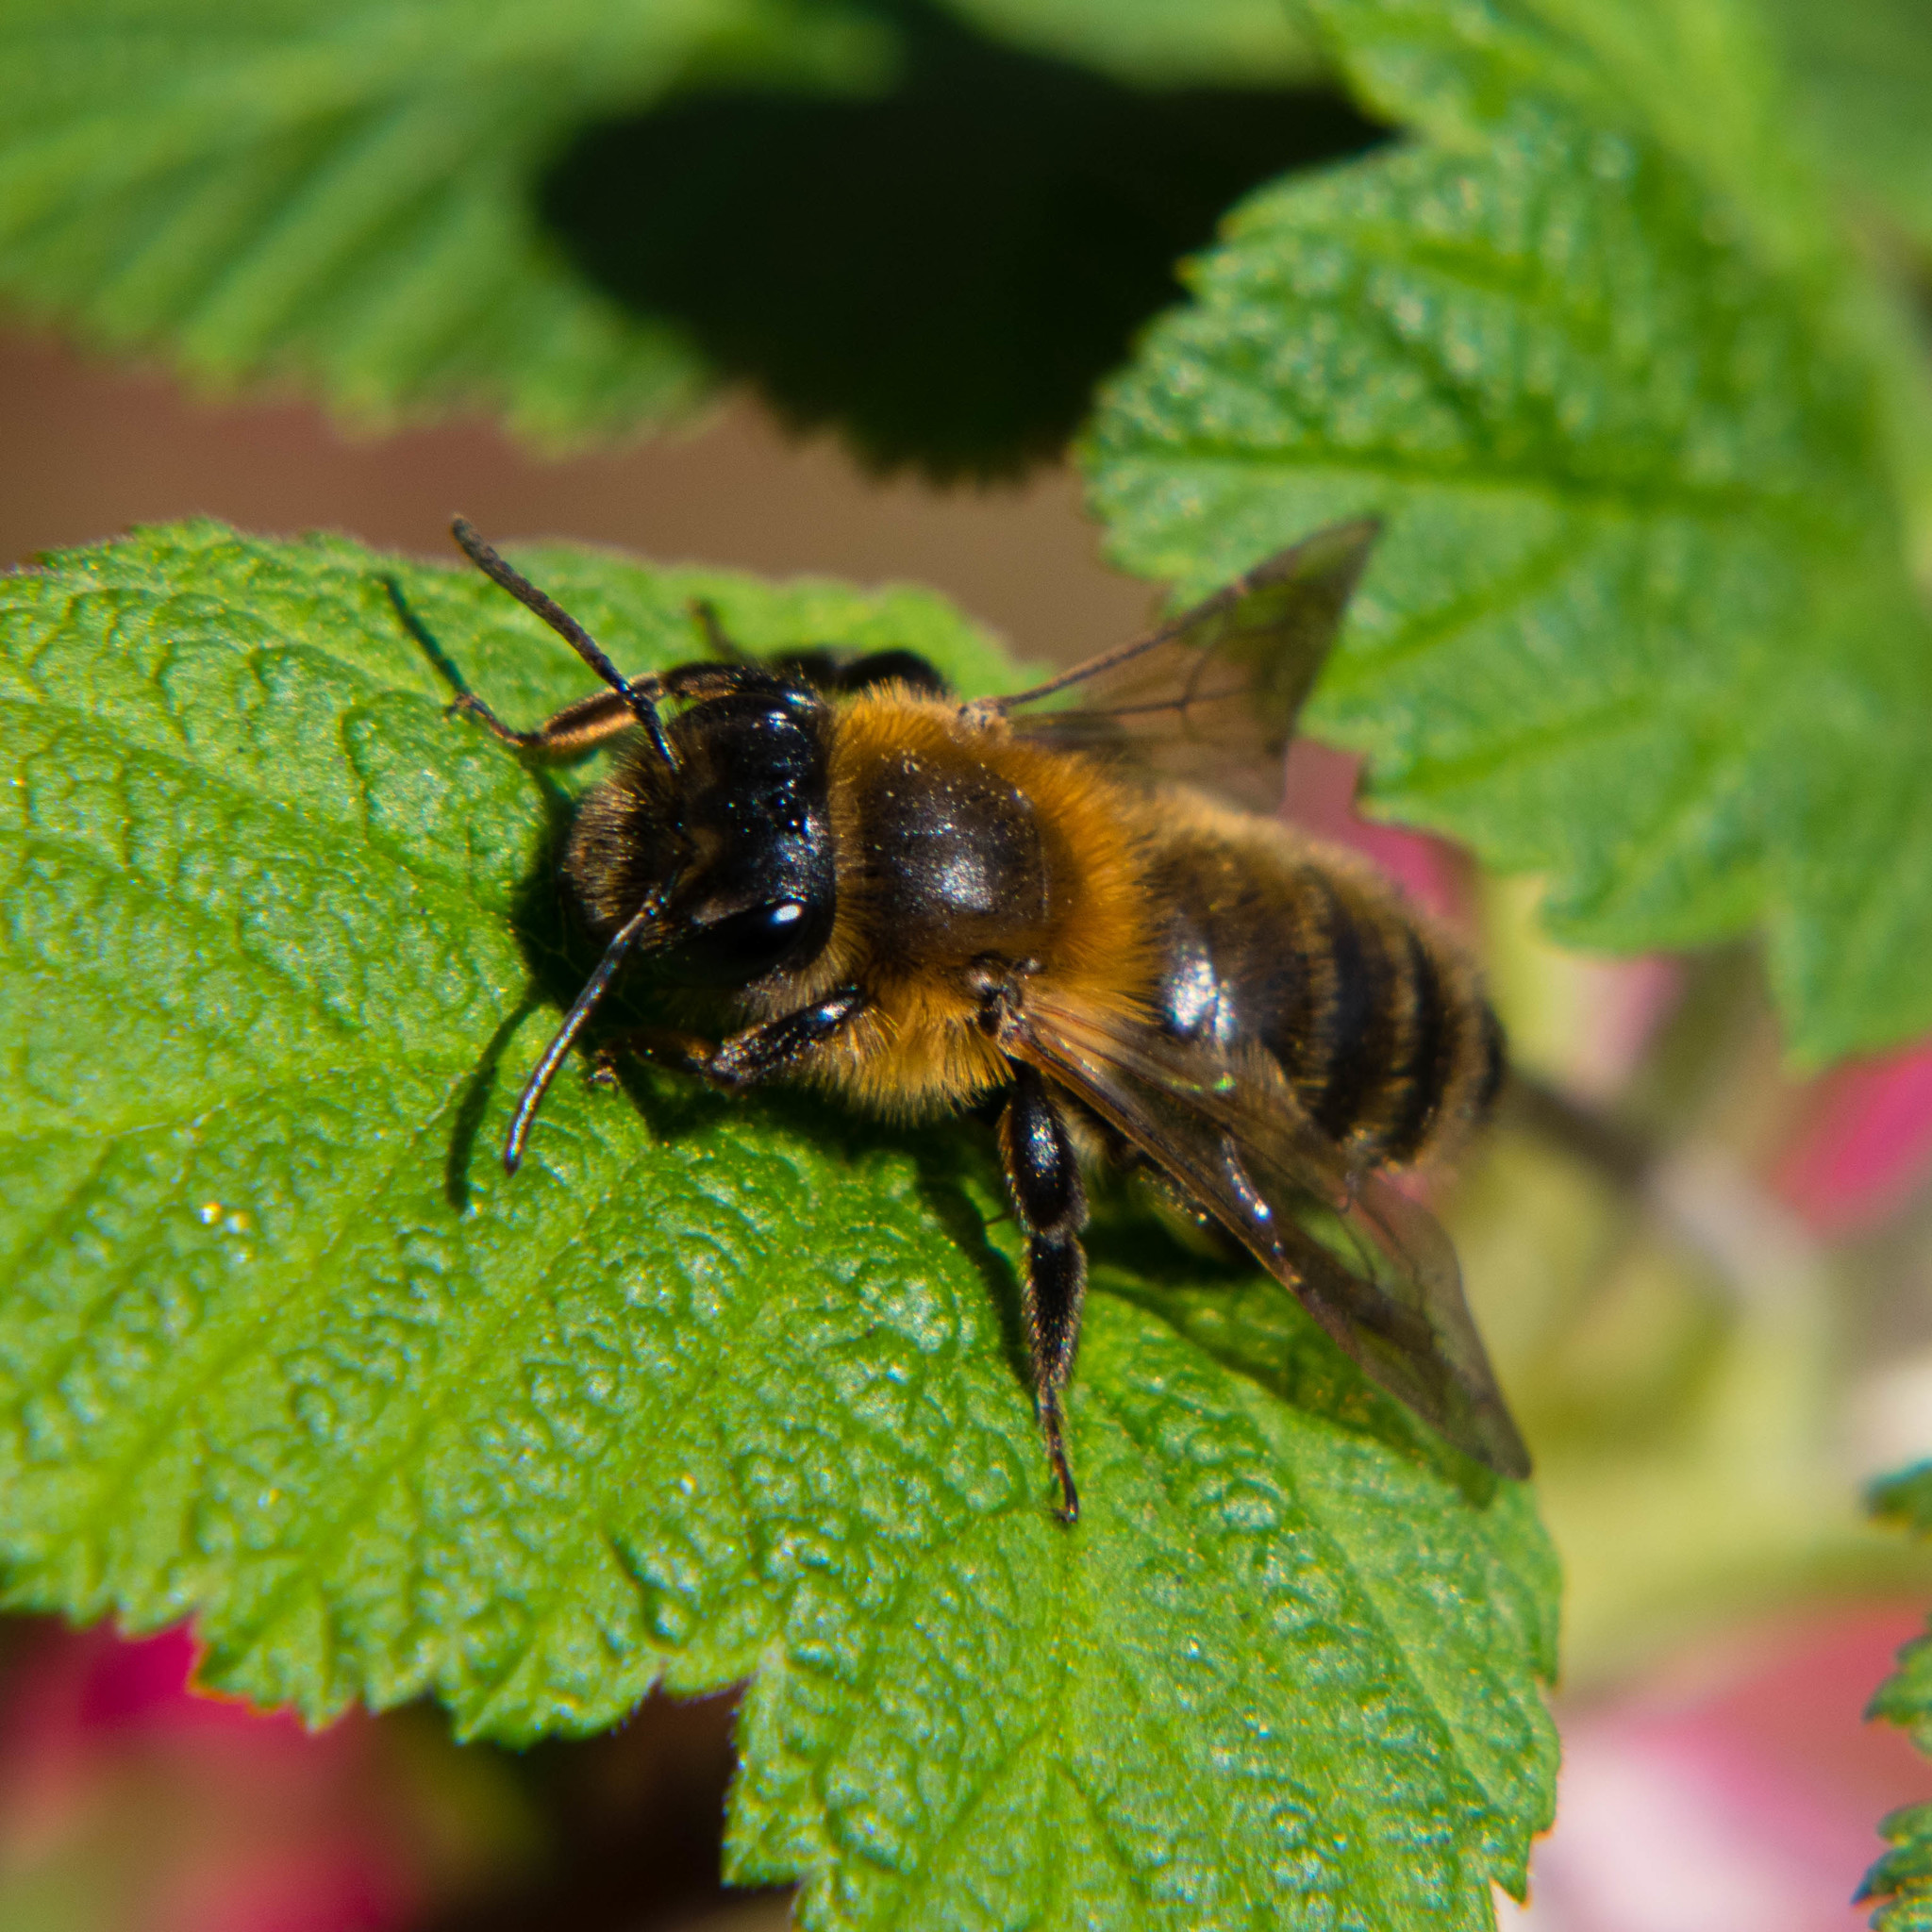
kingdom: Animalia
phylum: Arthropoda
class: Insecta
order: Hymenoptera
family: Andrenidae
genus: Andrena
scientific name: Andrena carantonica
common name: Chocolate mining bee
